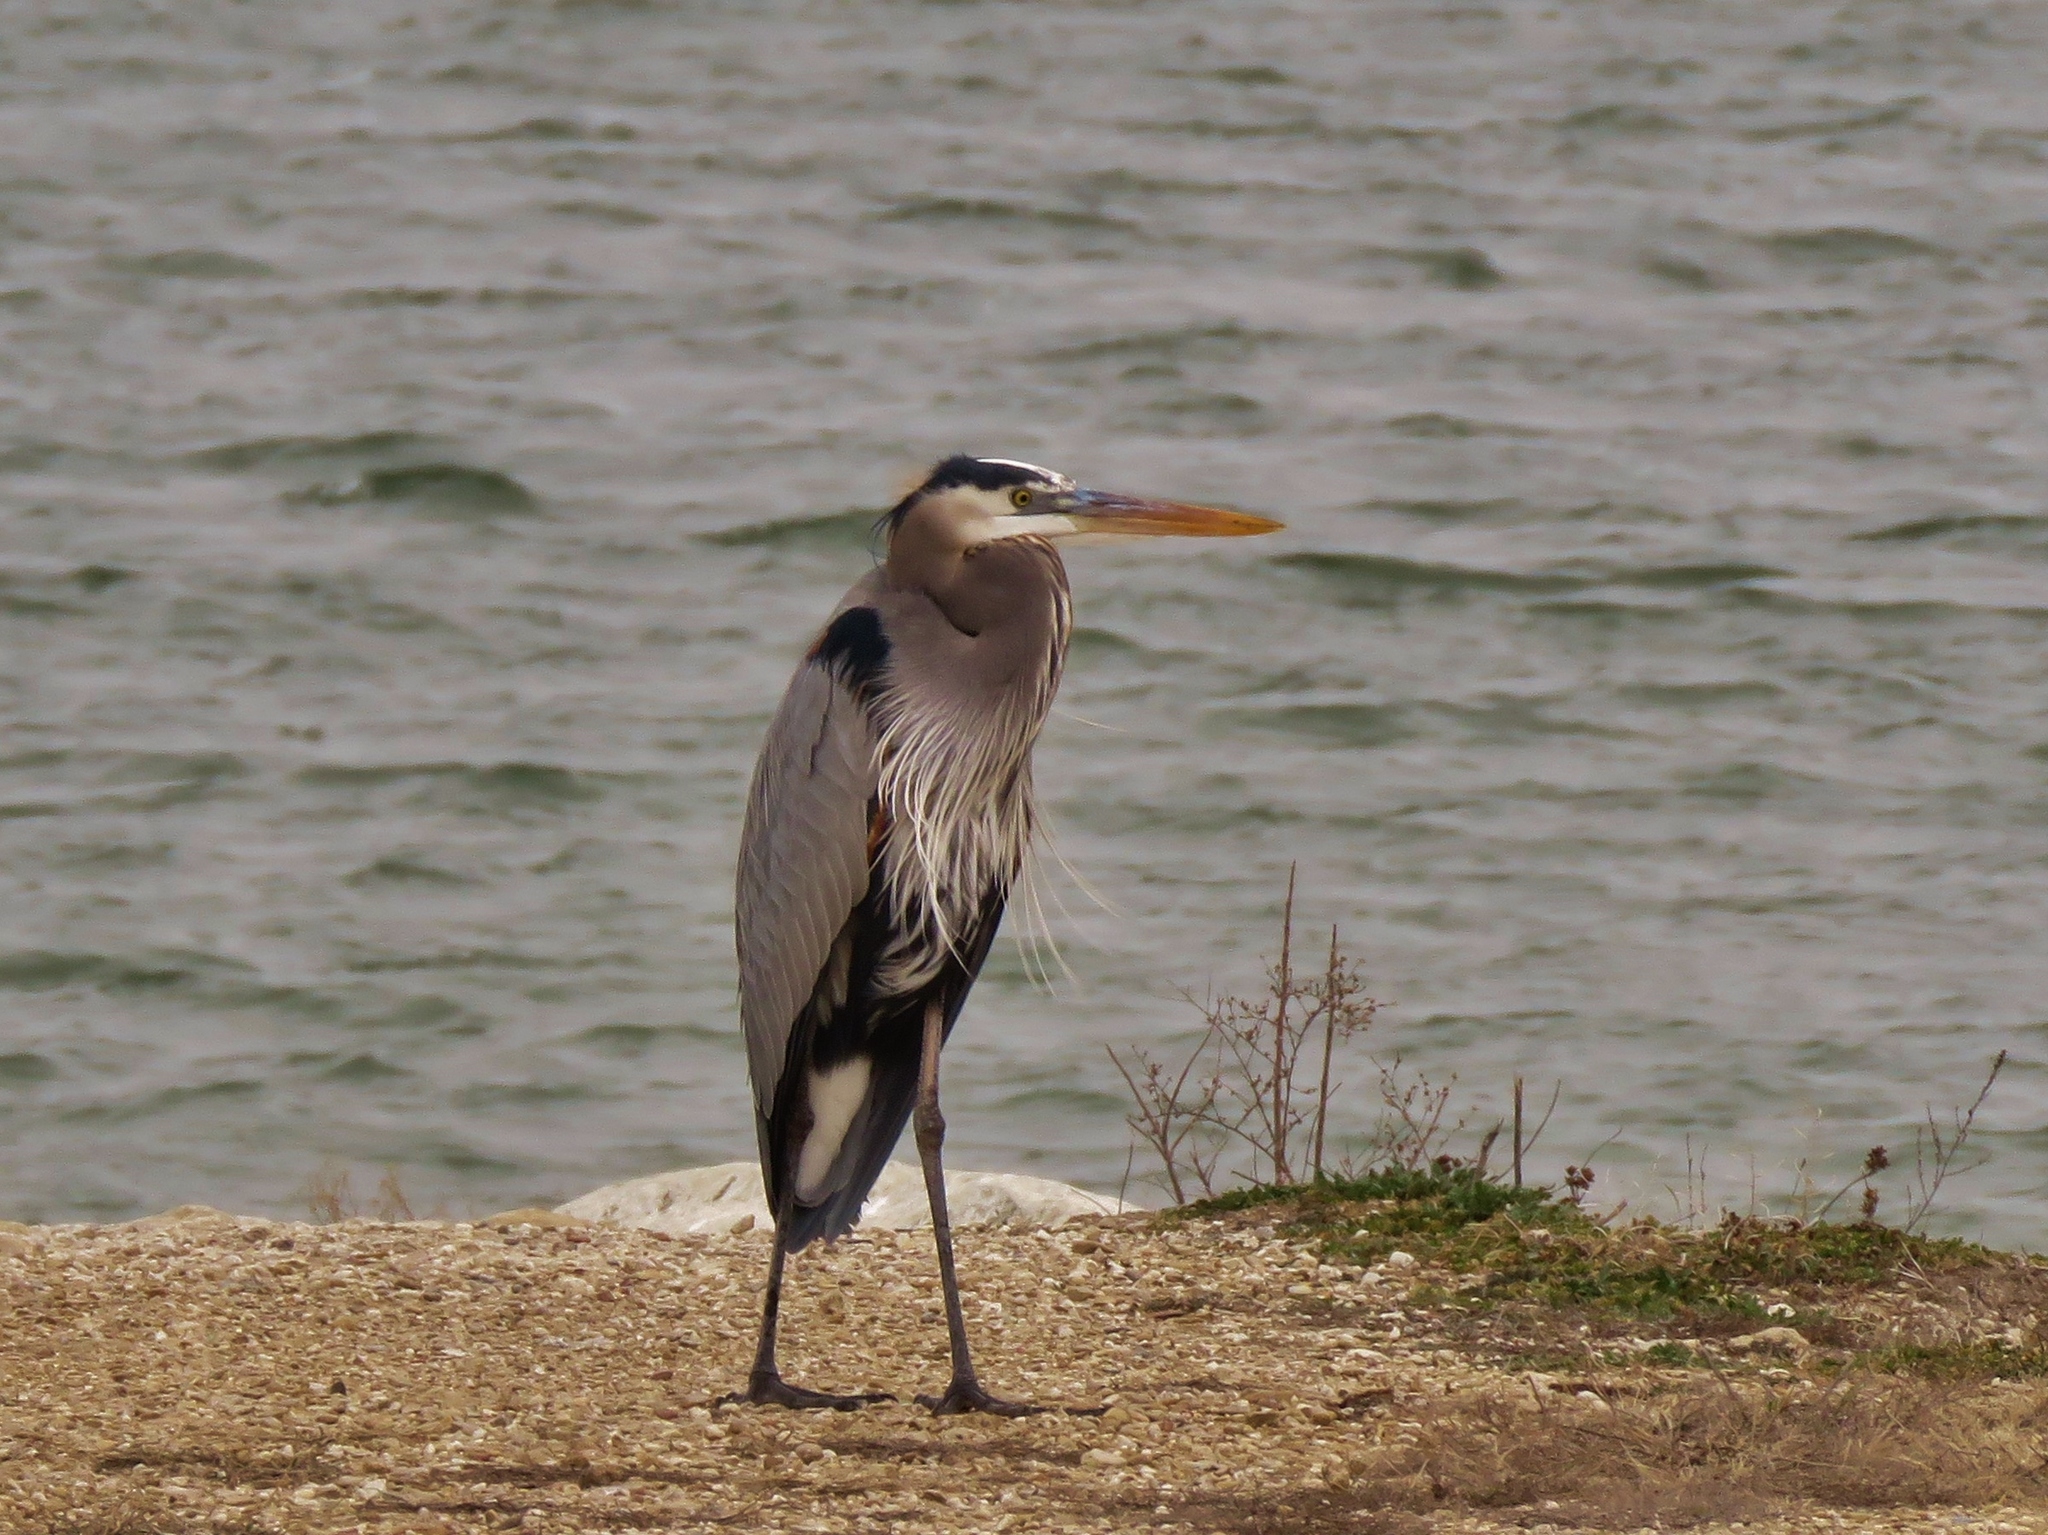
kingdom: Animalia
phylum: Chordata
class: Aves
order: Pelecaniformes
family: Ardeidae
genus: Ardea
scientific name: Ardea herodias
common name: Great blue heron
